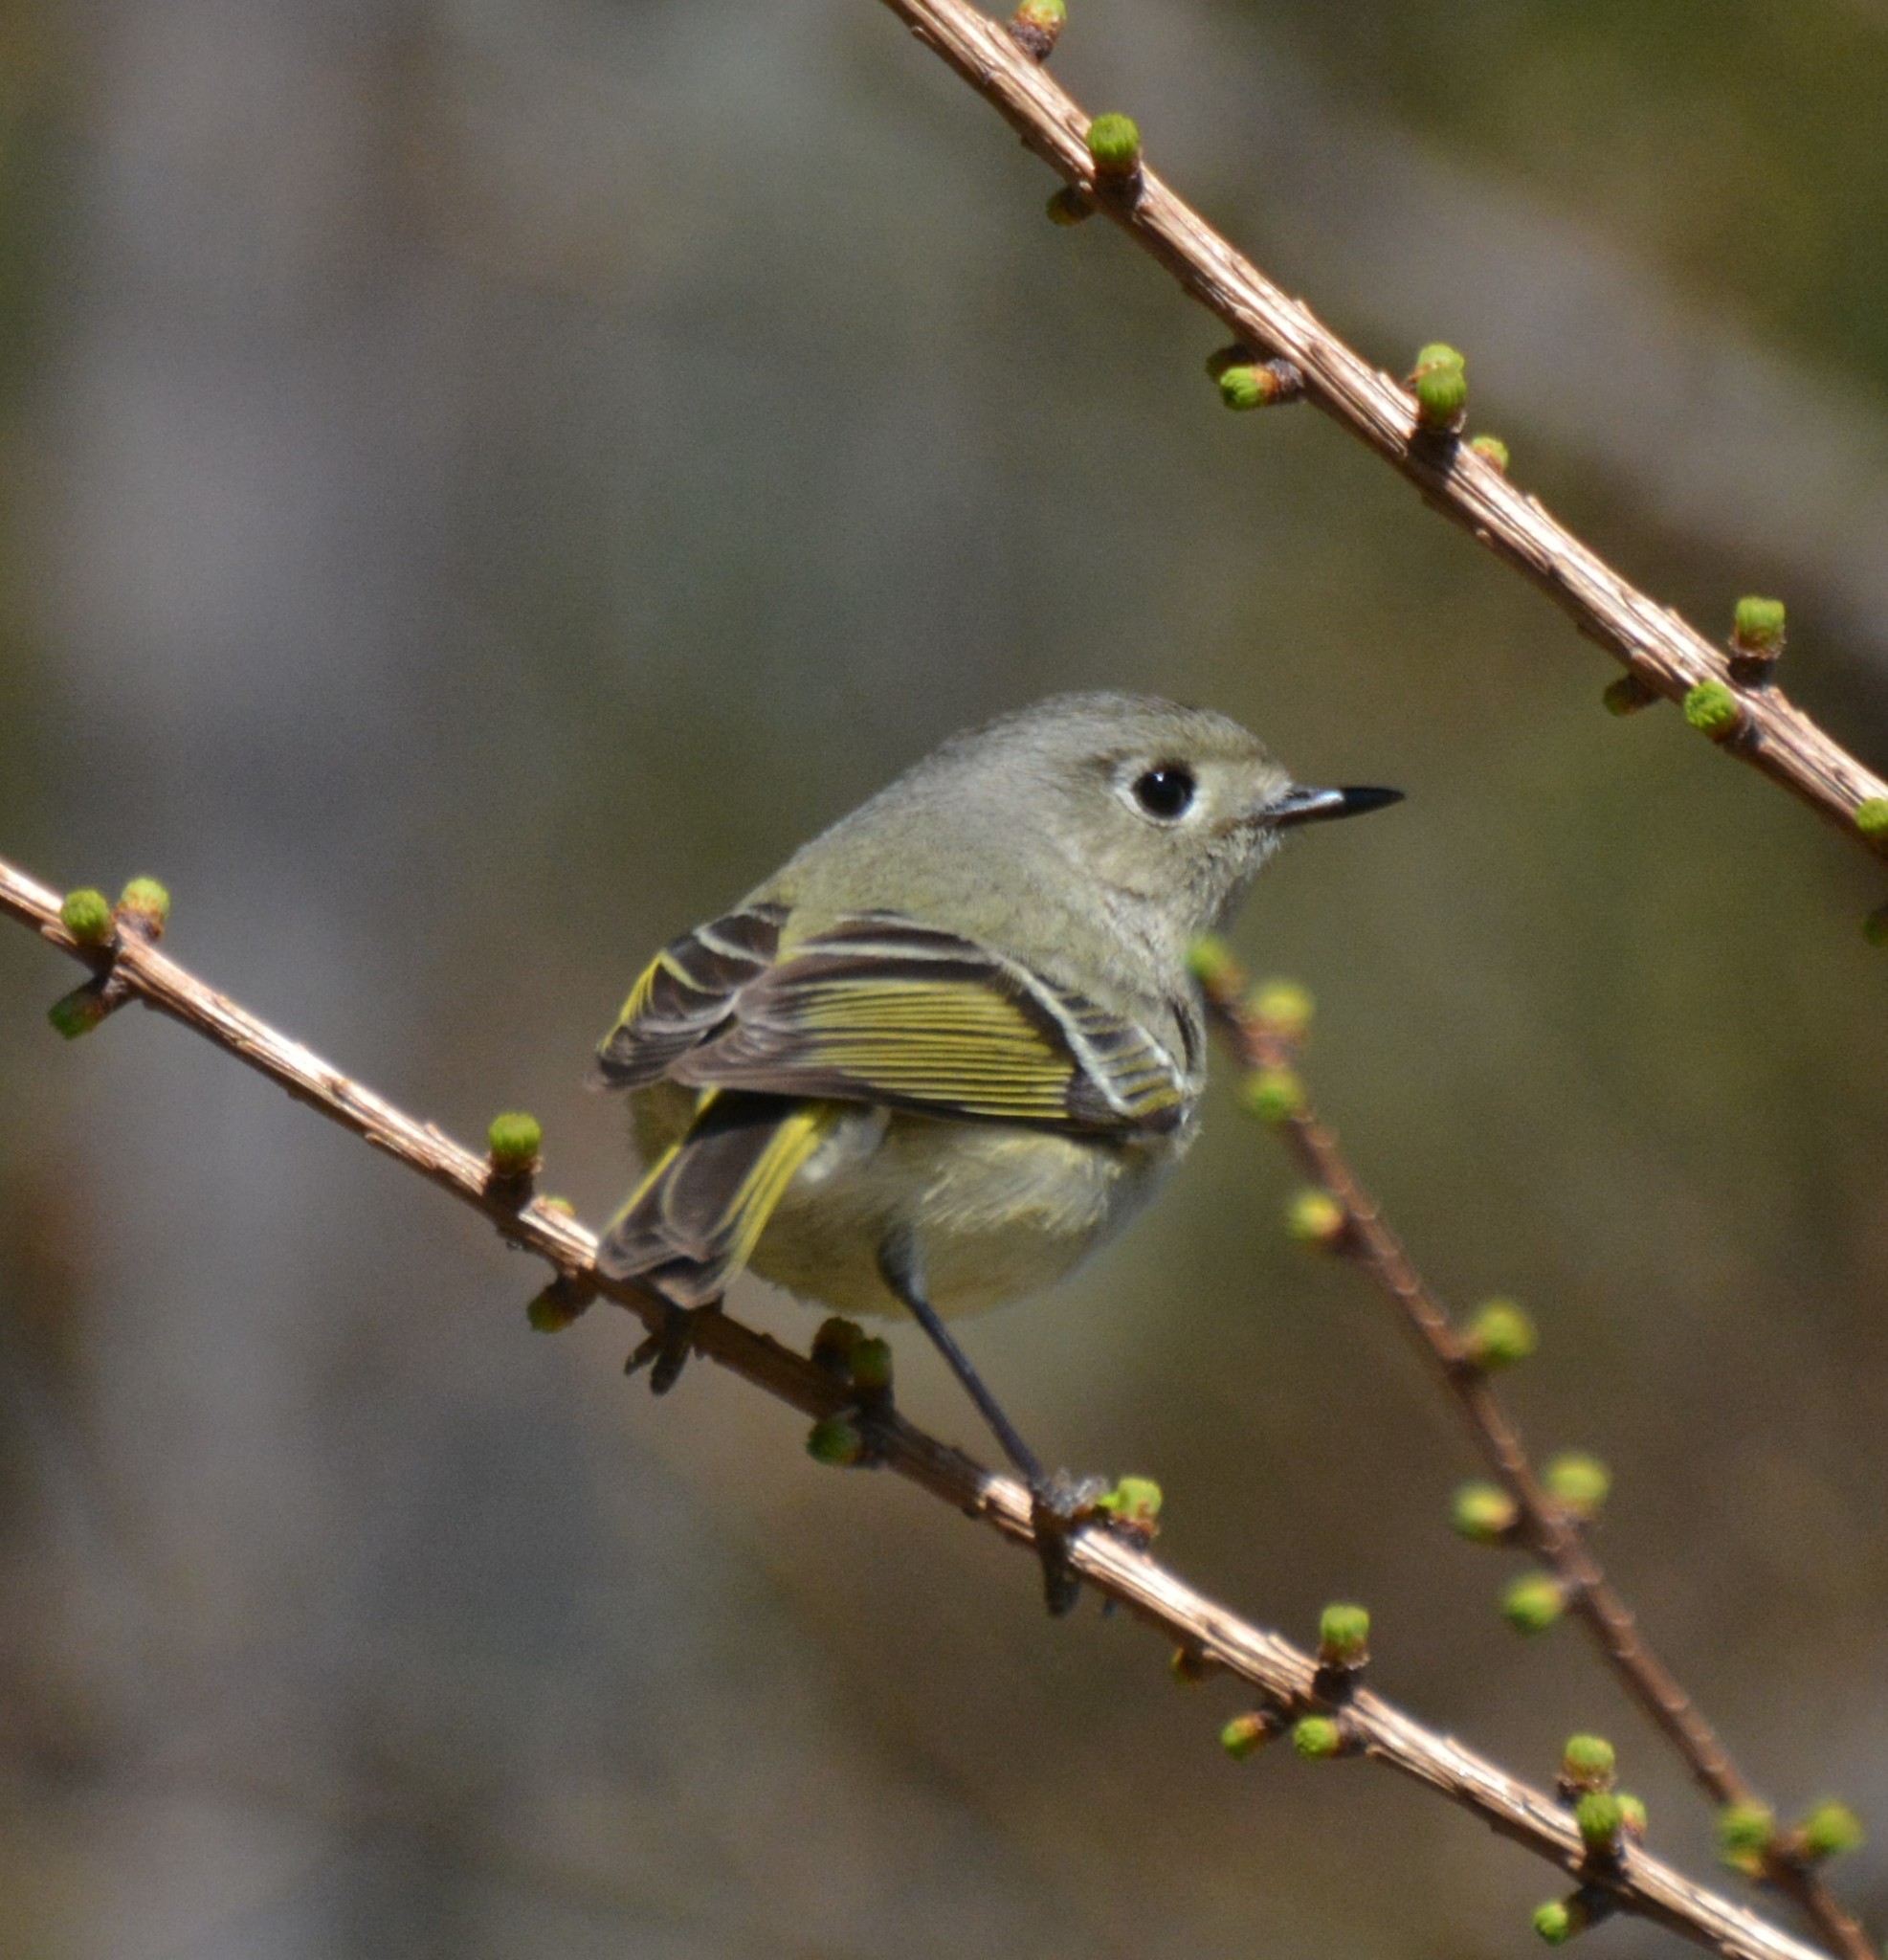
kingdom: Animalia
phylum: Chordata
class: Aves
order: Passeriformes
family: Regulidae
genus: Regulus
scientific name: Regulus calendula
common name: Ruby-crowned kinglet
